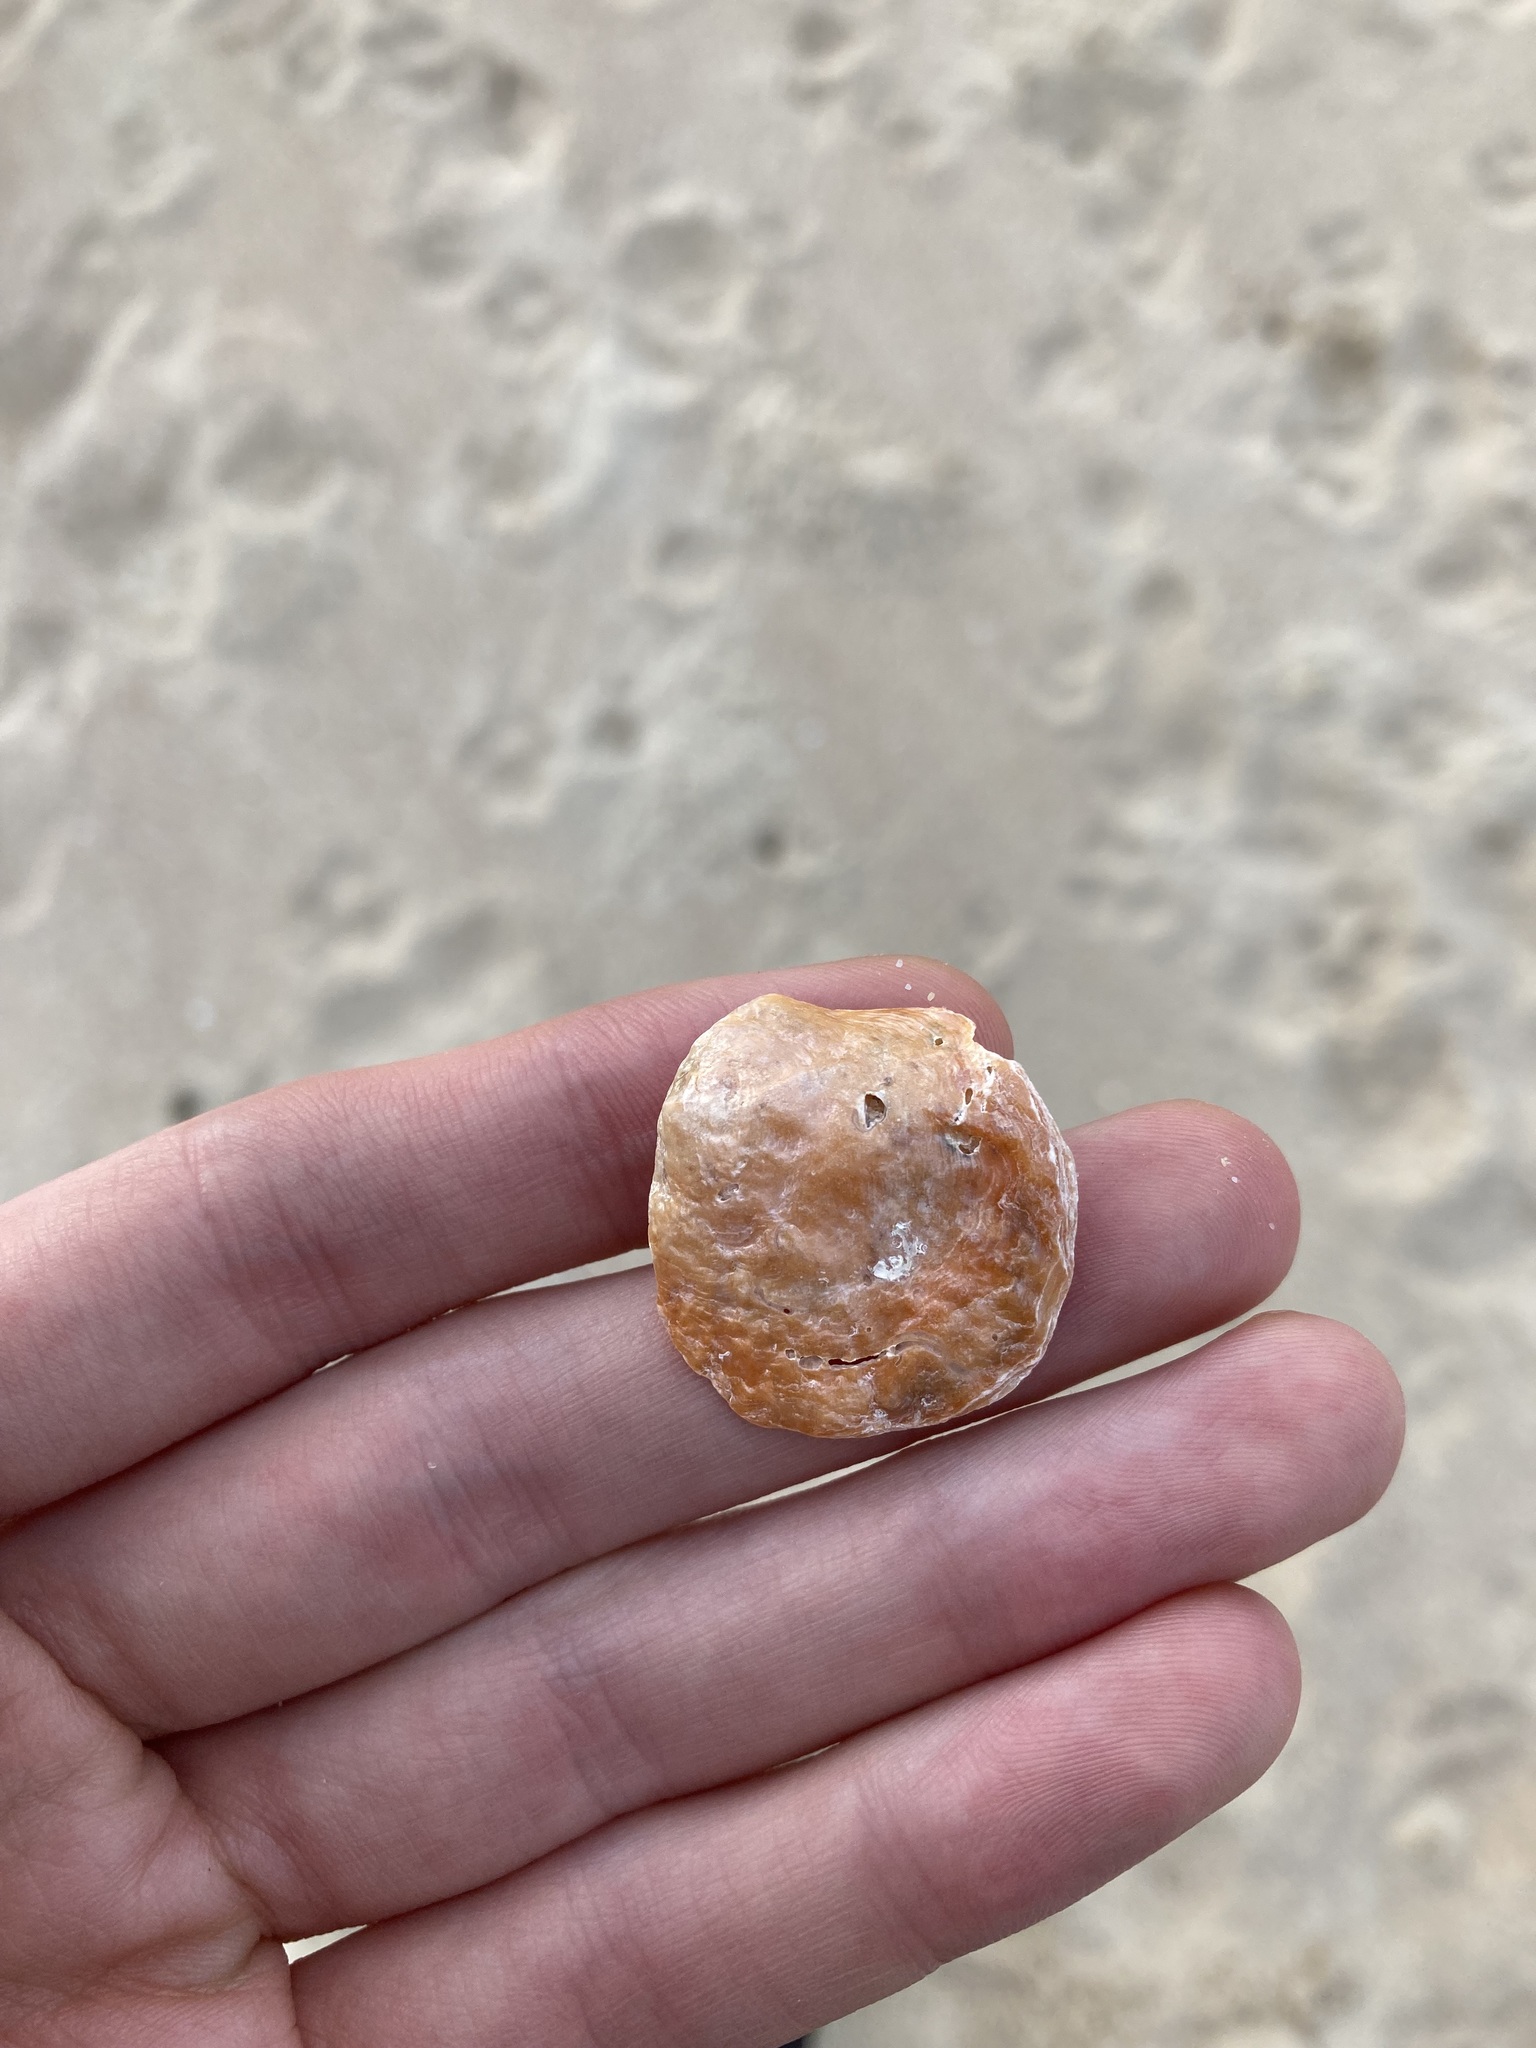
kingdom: Animalia
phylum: Mollusca
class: Bivalvia
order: Pectinida
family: Anomiidae
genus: Anomia
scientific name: Anomia trigonopsis
